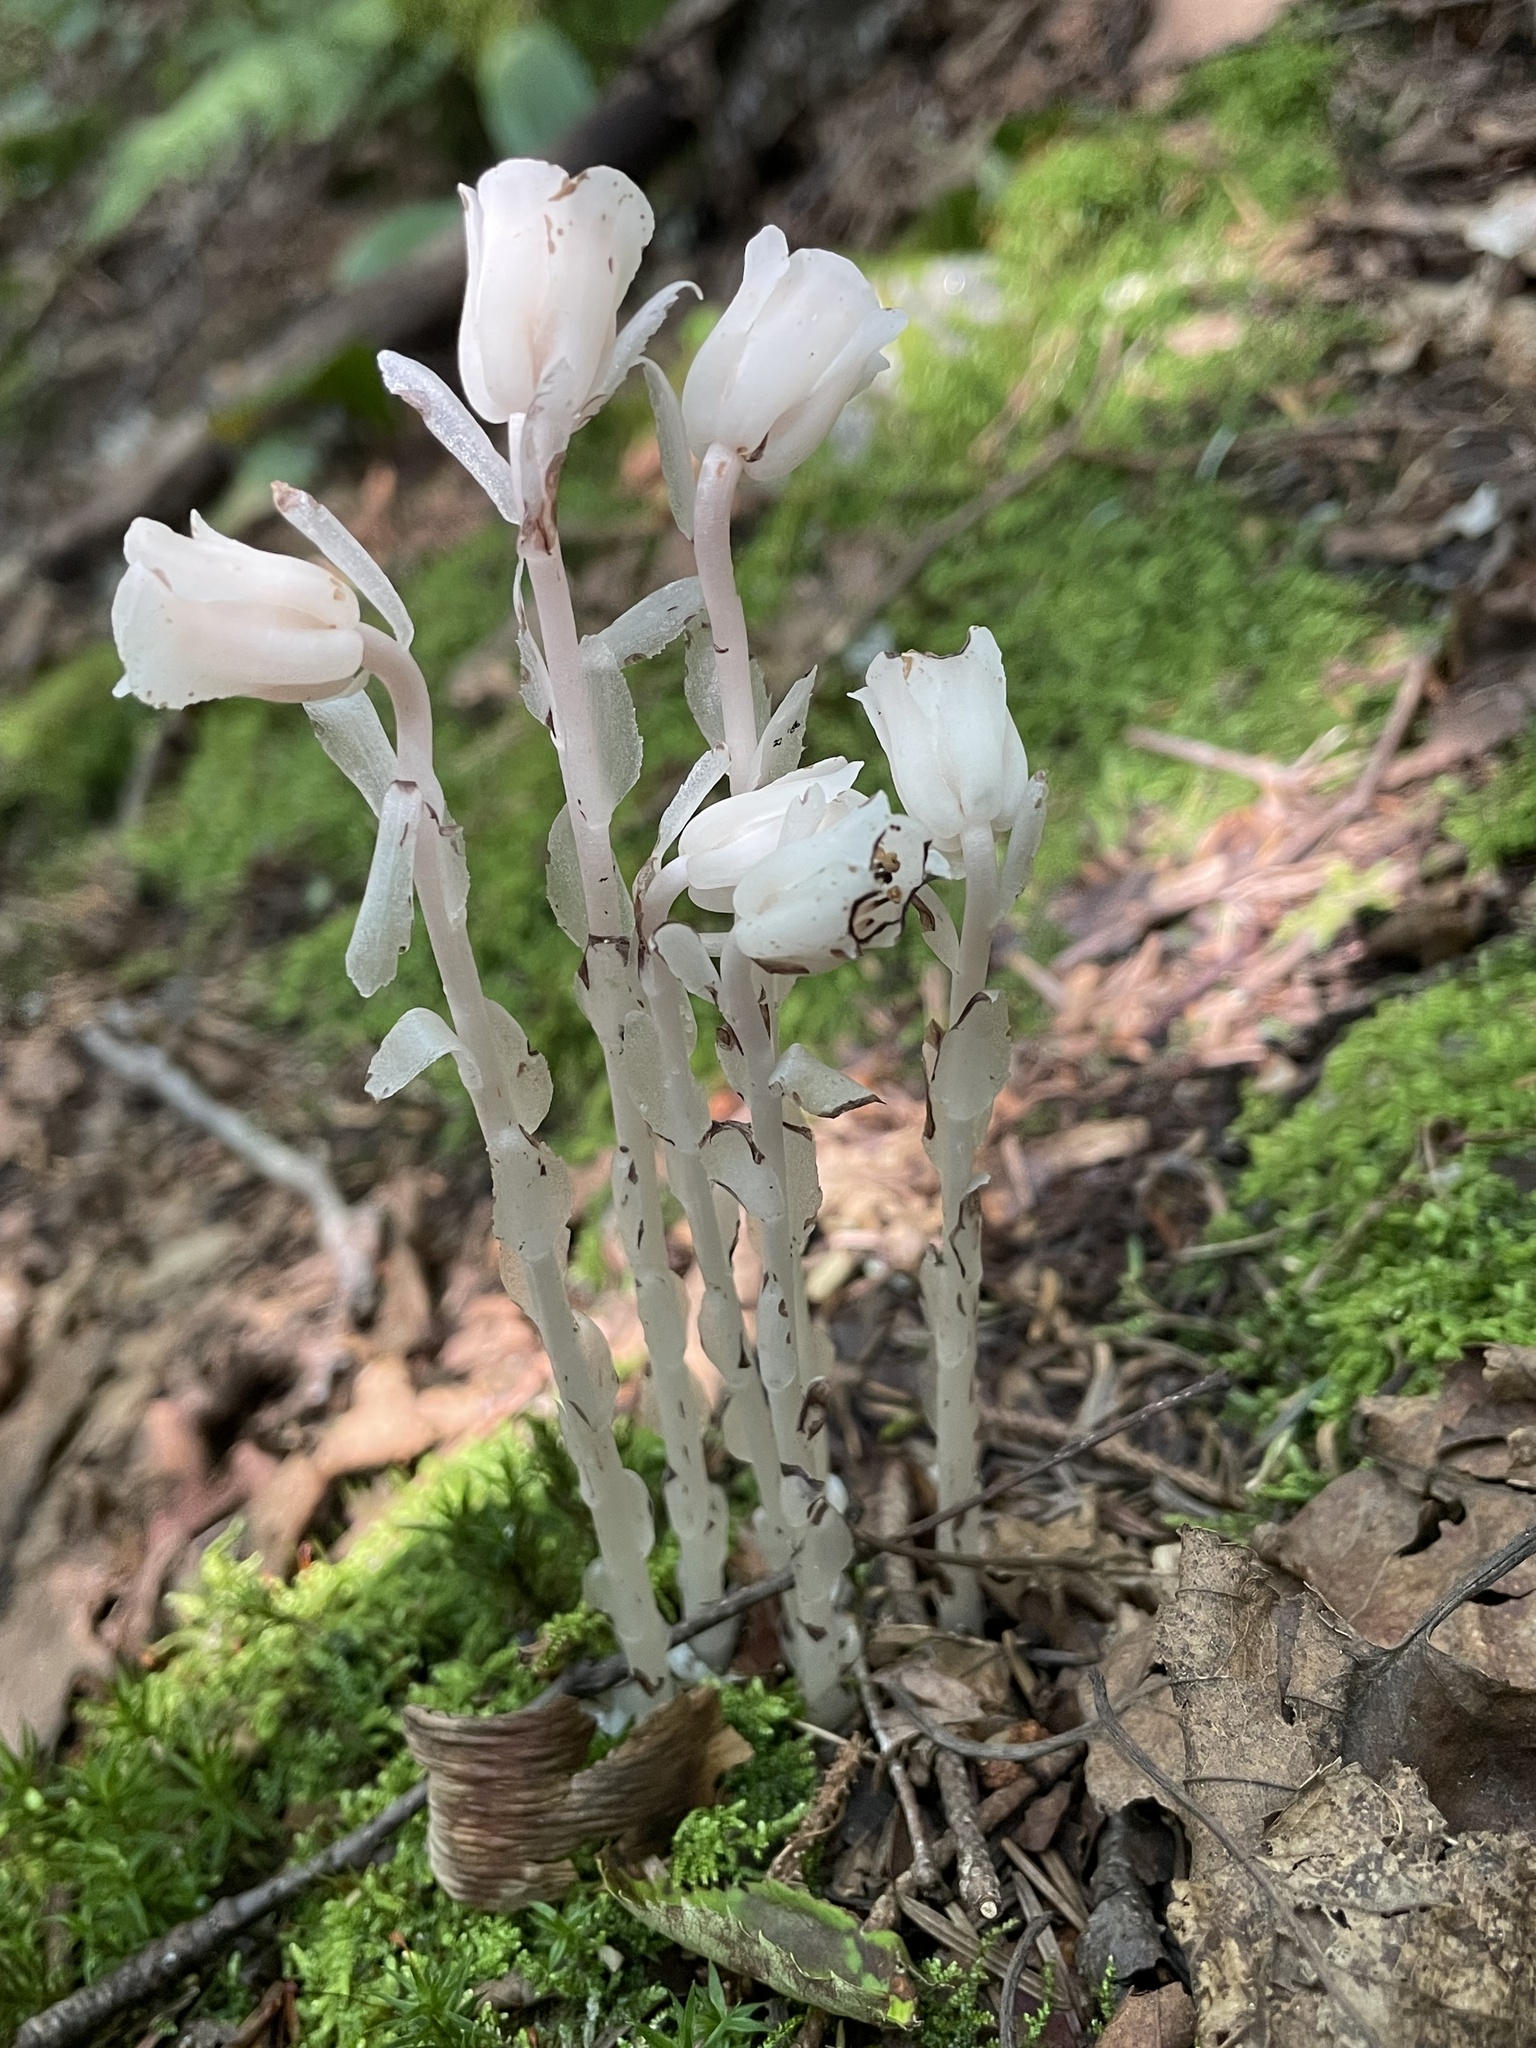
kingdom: Plantae
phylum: Tracheophyta
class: Magnoliopsida
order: Ericales
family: Ericaceae
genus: Monotropa
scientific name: Monotropa uniflora
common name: Convulsion root
